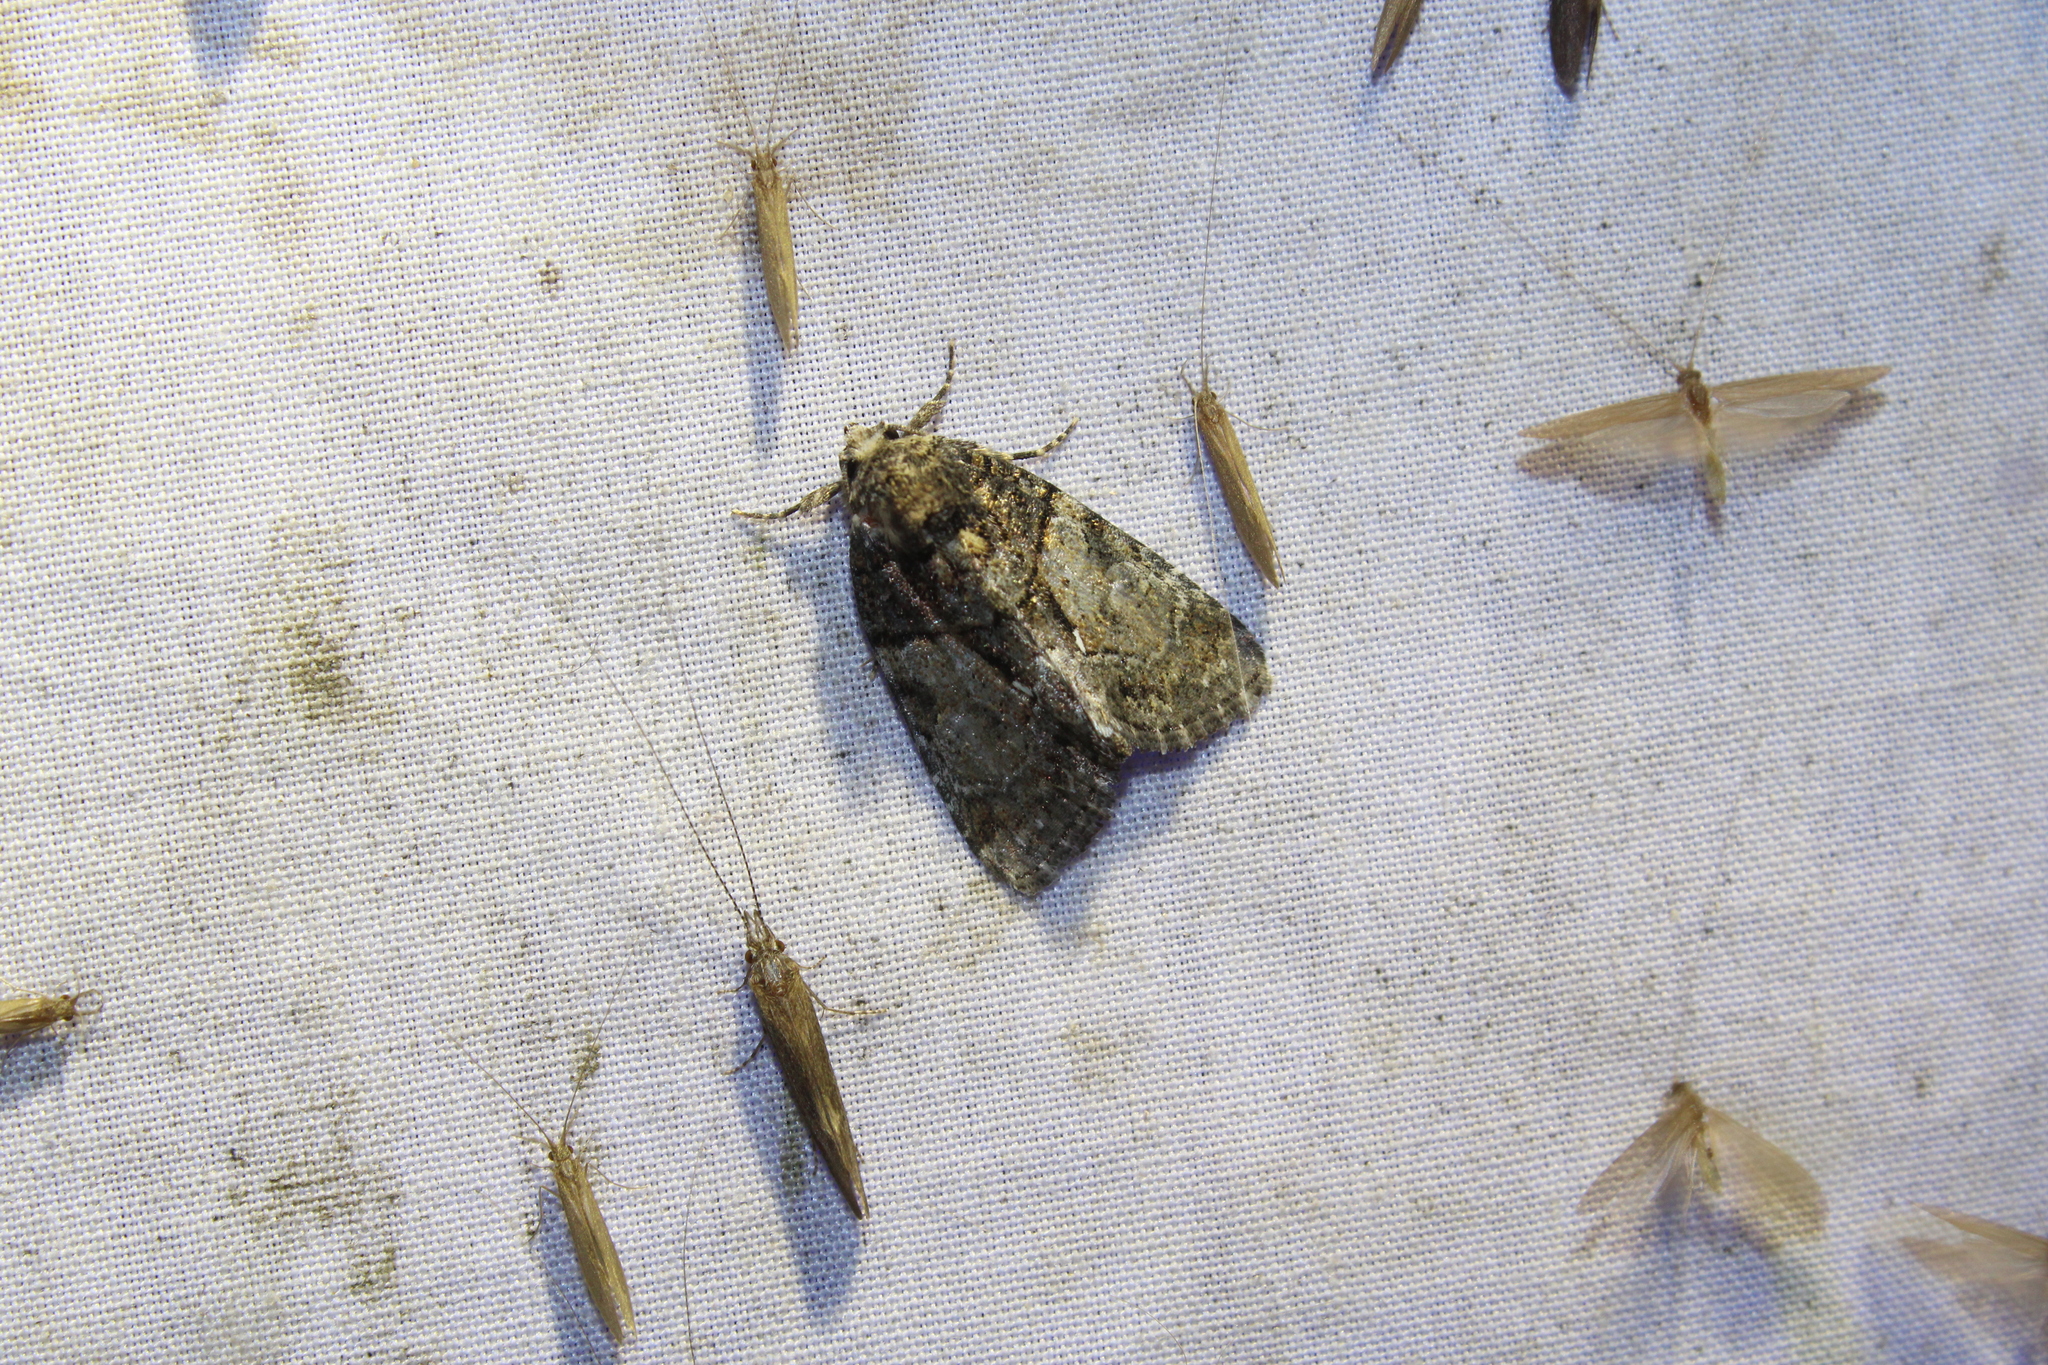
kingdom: Animalia
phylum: Arthropoda
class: Insecta
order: Lepidoptera
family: Noctuidae
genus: Chytonix
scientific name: Chytonix palliatricula
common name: Cloaked marvel
